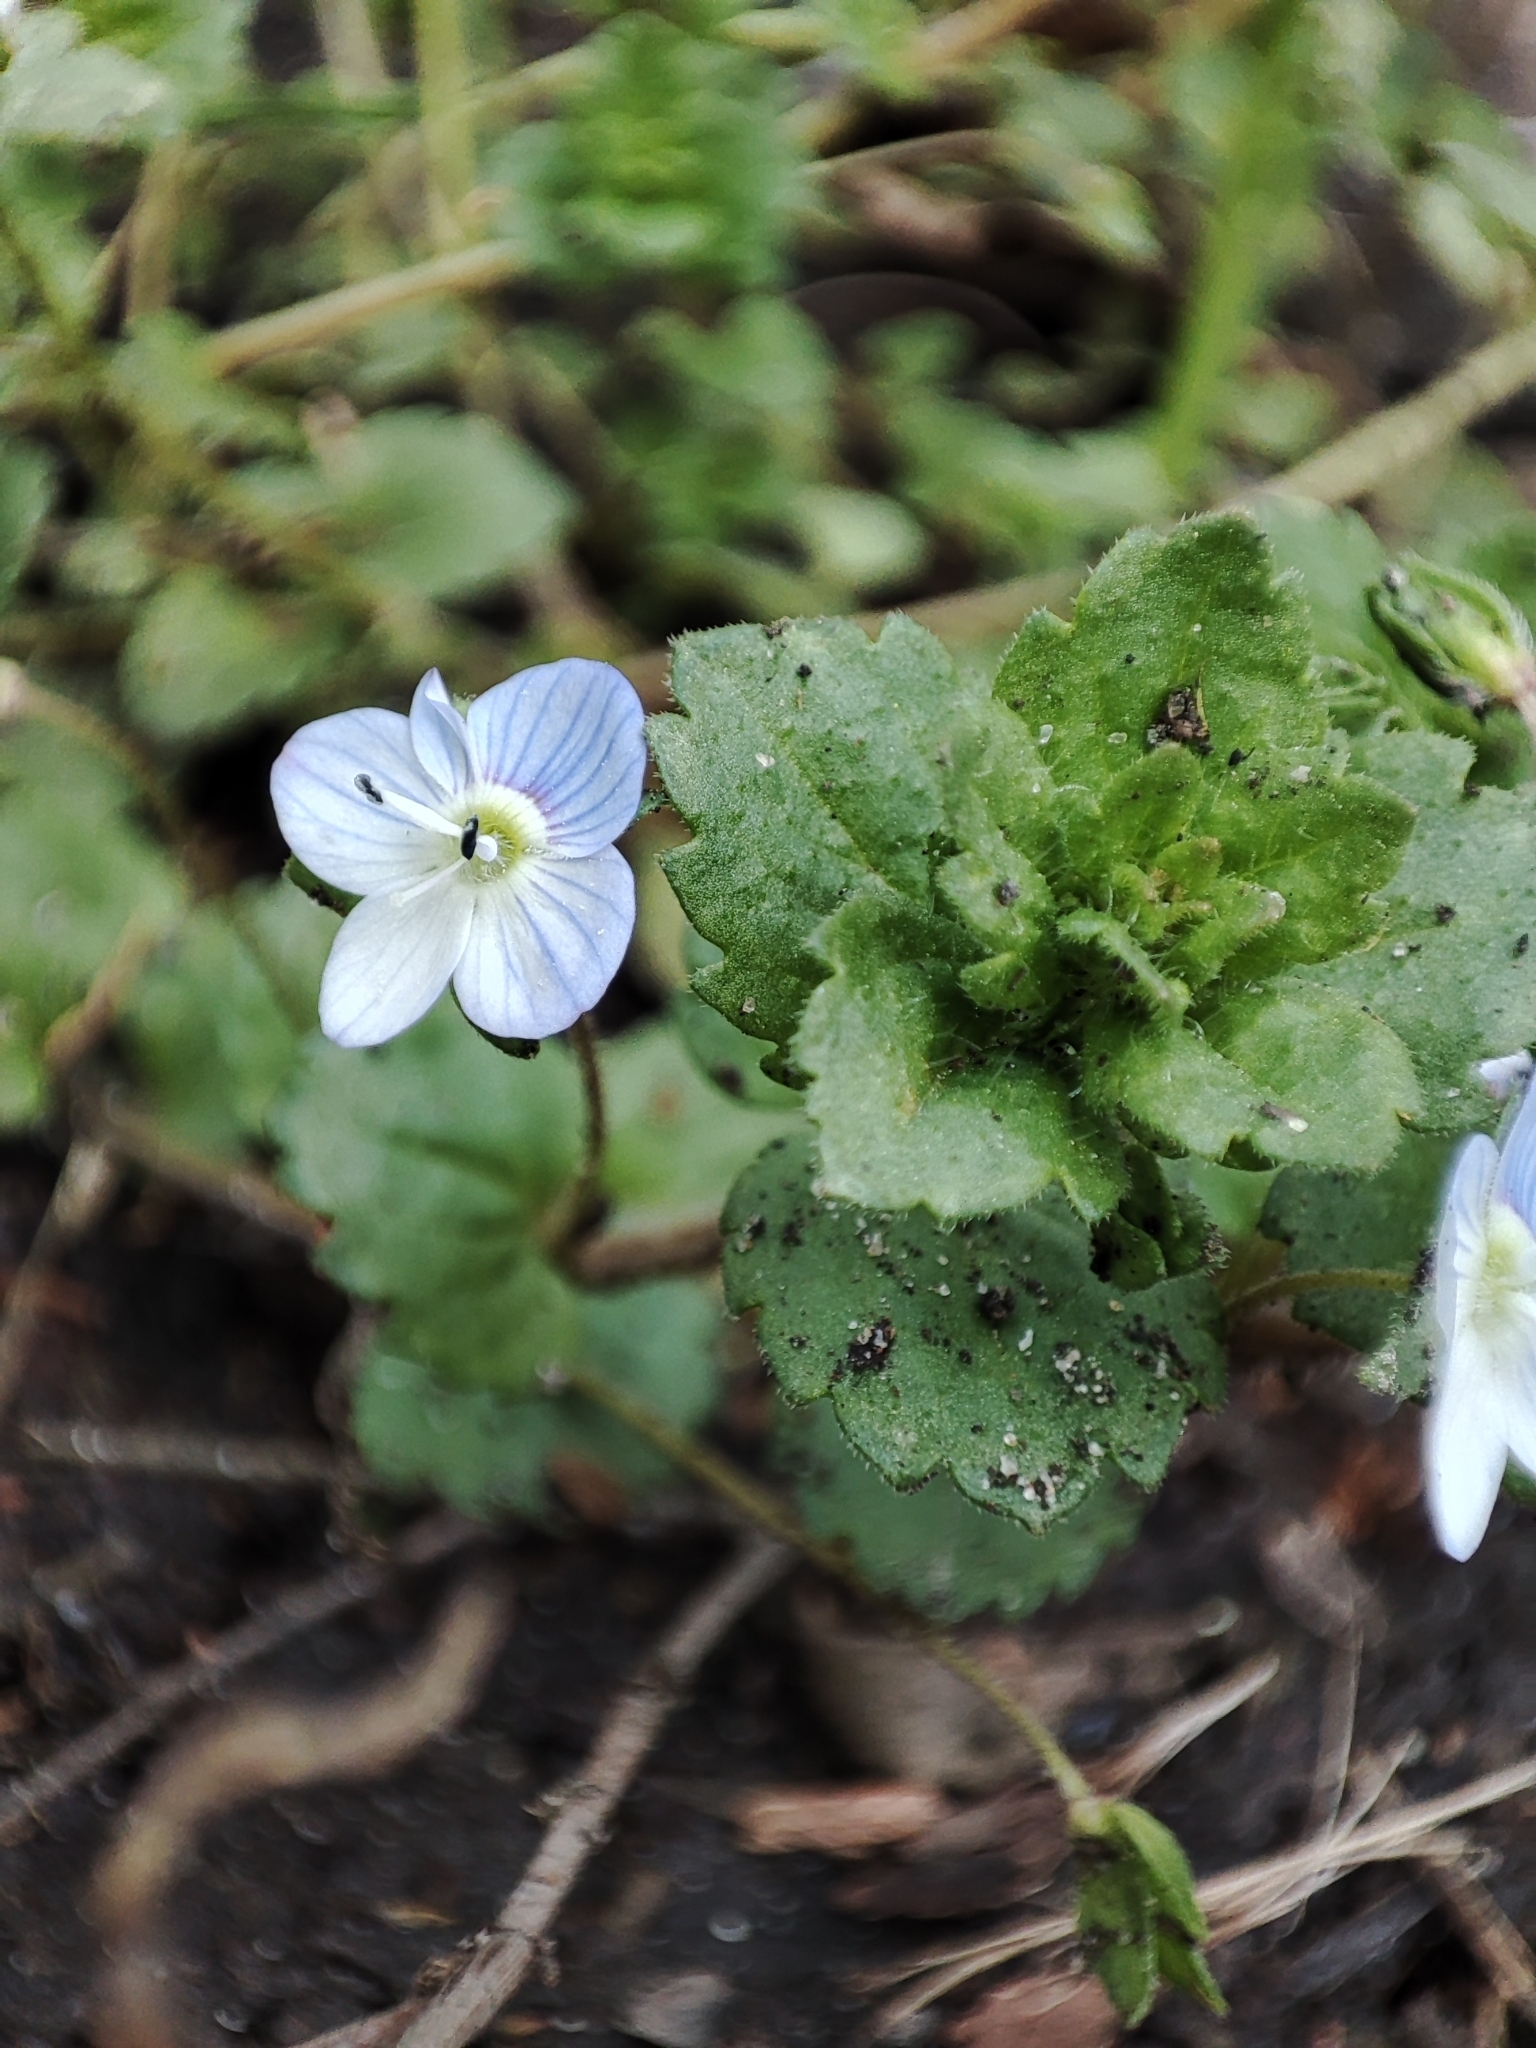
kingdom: Plantae
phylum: Tracheophyta
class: Magnoliopsida
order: Lamiales
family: Plantaginaceae
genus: Veronica
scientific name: Veronica persica
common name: Common field-speedwell
